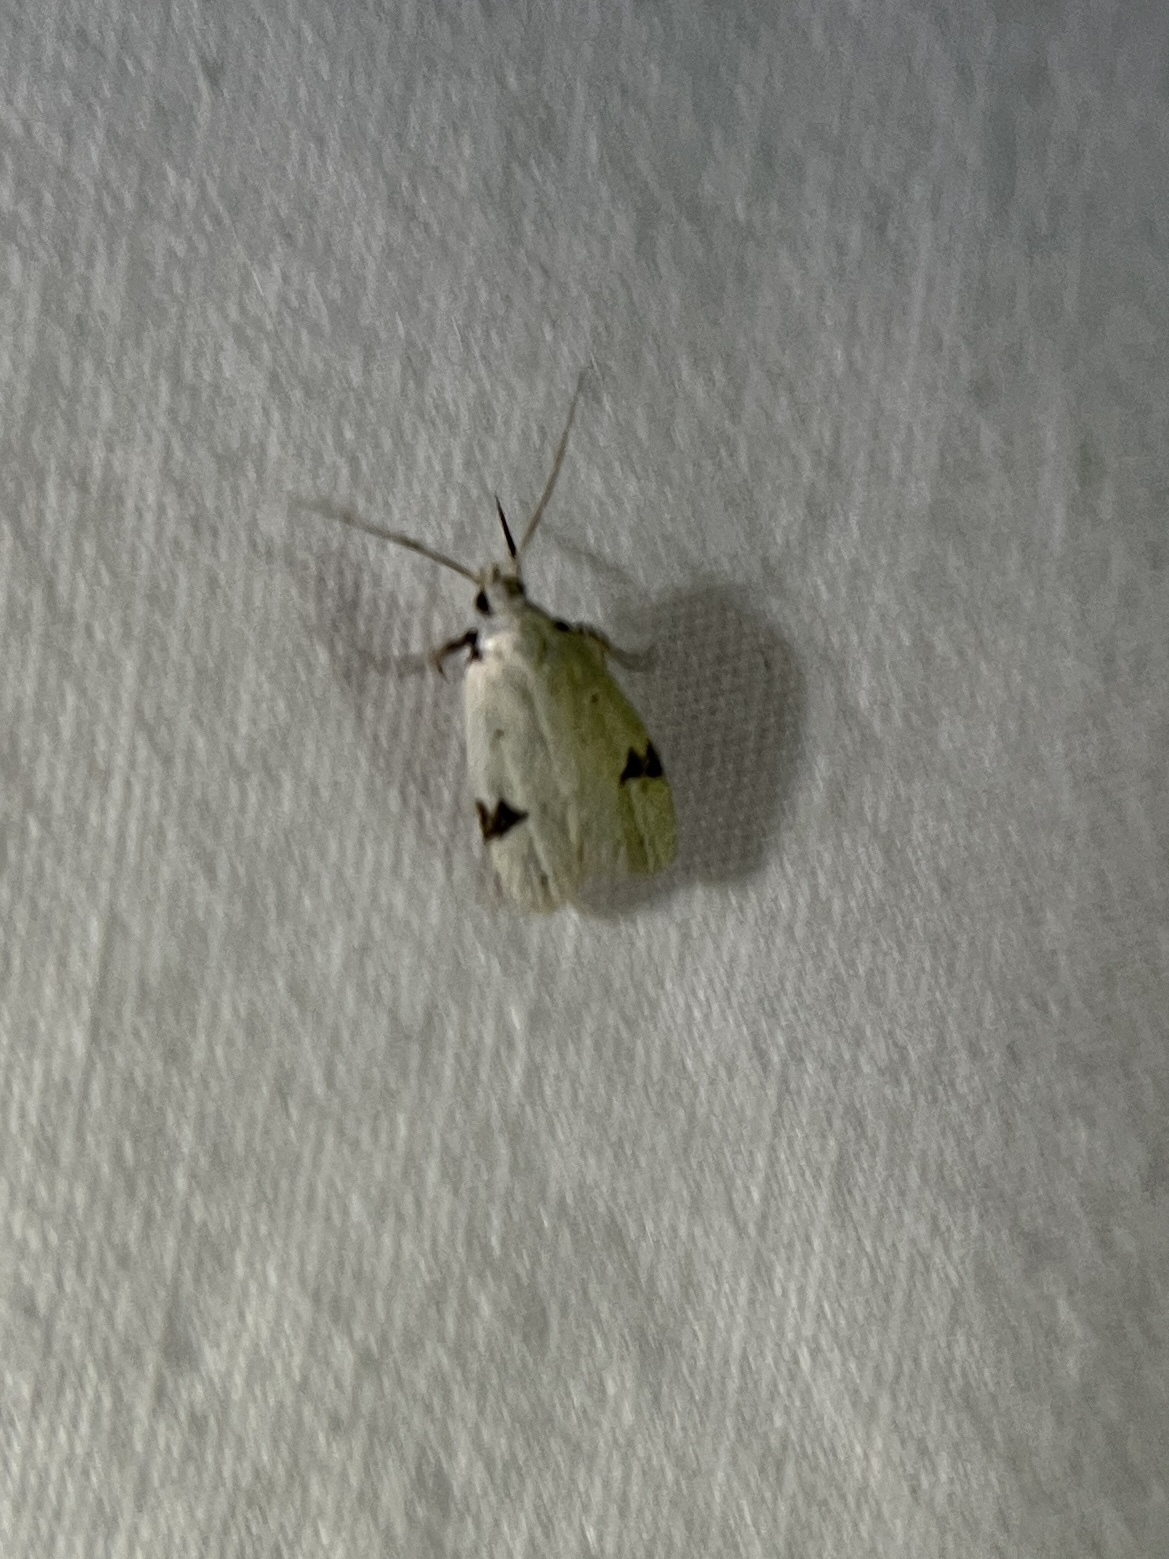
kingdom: Animalia
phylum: Arthropoda
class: Insecta
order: Lepidoptera
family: Oecophoridae
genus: Inga
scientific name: Inga sparsiciliella
